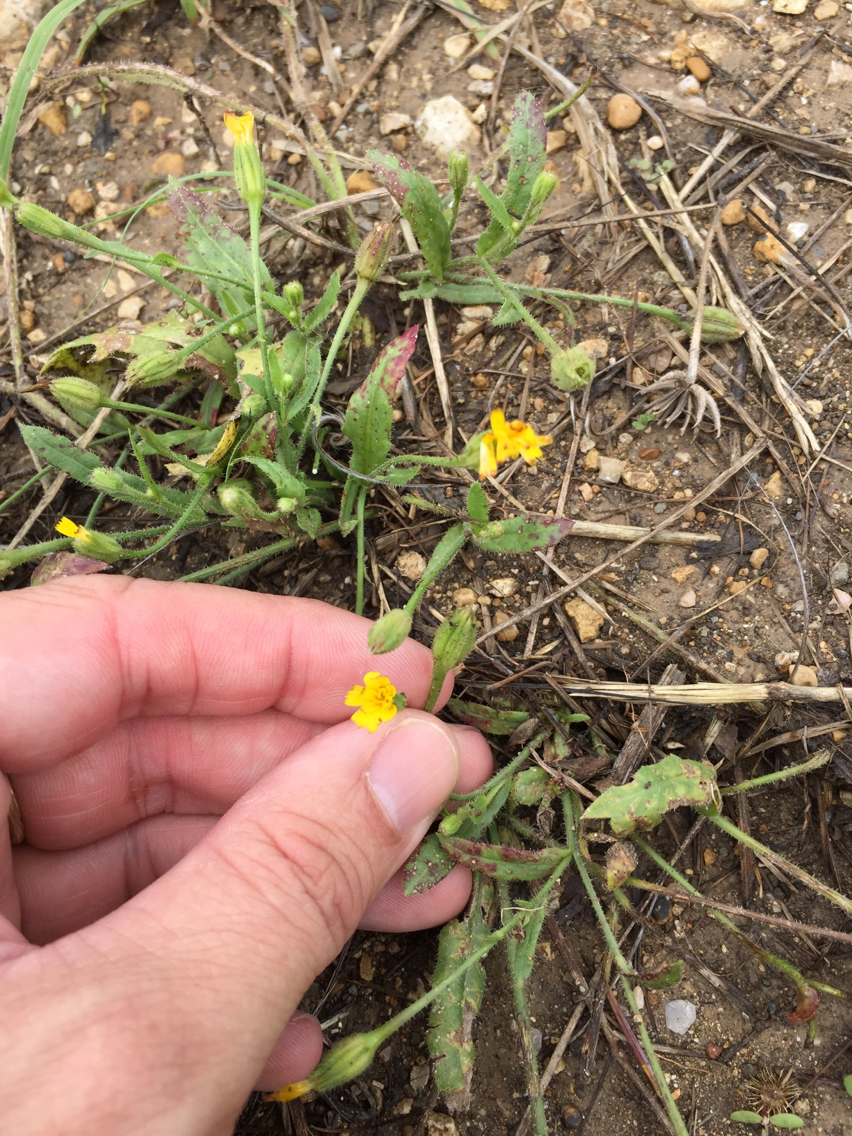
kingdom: Plantae
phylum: Tracheophyta
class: Magnoliopsida
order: Asterales
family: Asteraceae
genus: Hedypnois
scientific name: Hedypnois rhagadioloides
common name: Cretan weed
